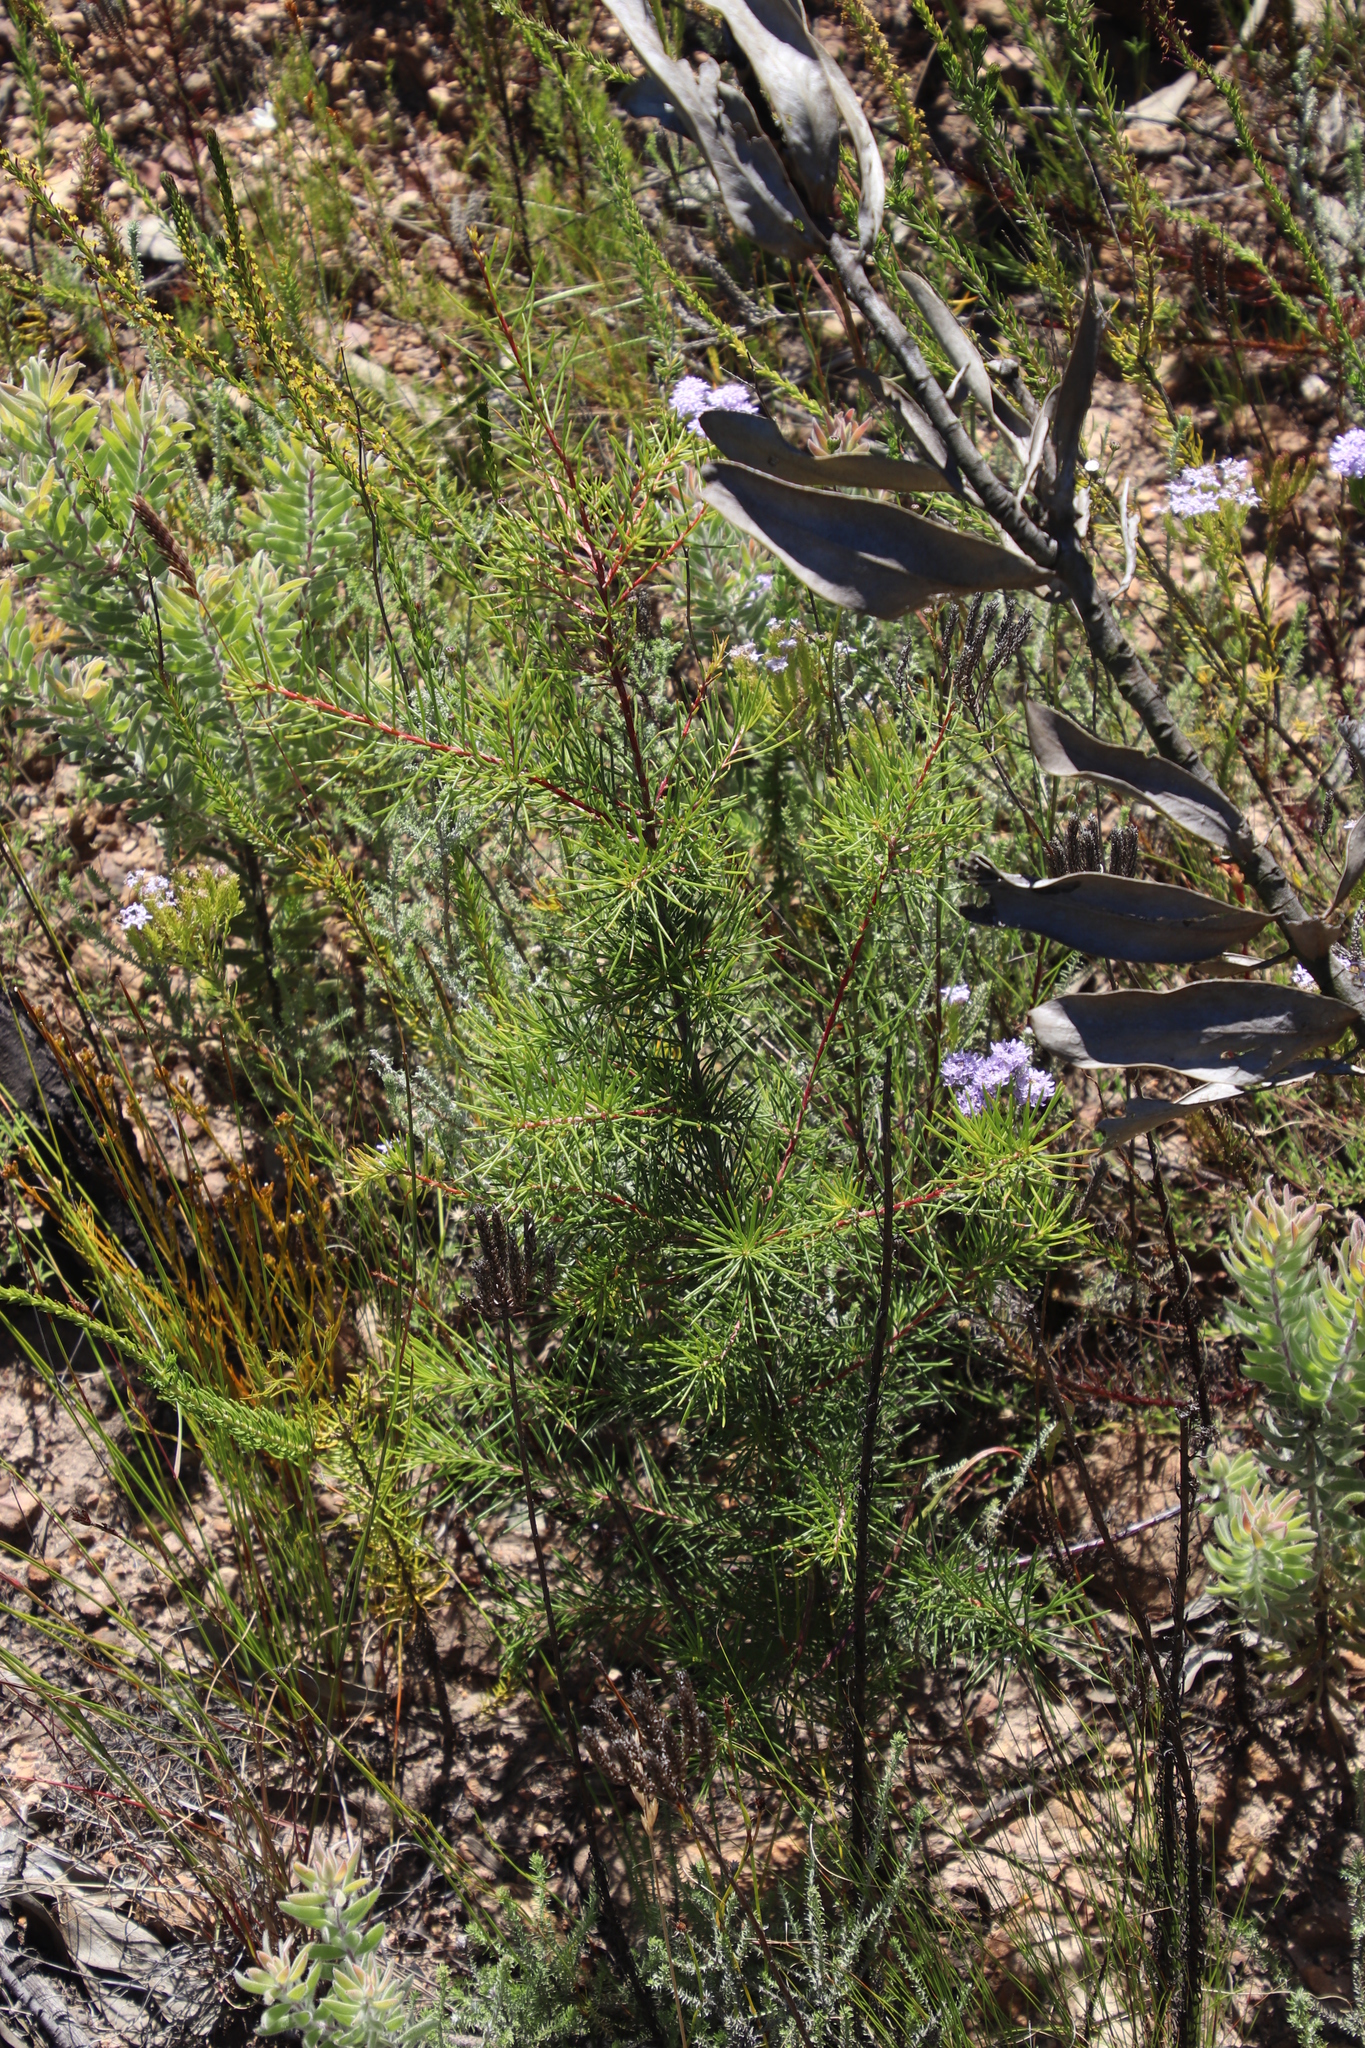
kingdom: Plantae
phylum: Tracheophyta
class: Magnoliopsida
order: Proteales
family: Proteaceae
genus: Hakea
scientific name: Hakea sericea
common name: Needle bush
